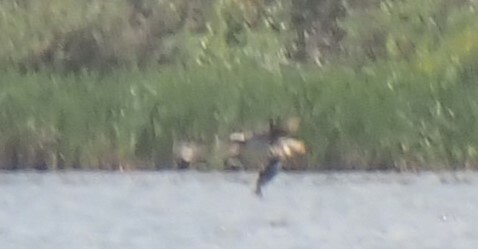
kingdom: Animalia
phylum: Chordata
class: Aves
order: Accipitriformes
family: Pandionidae
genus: Pandion
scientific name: Pandion haliaetus
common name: Osprey
